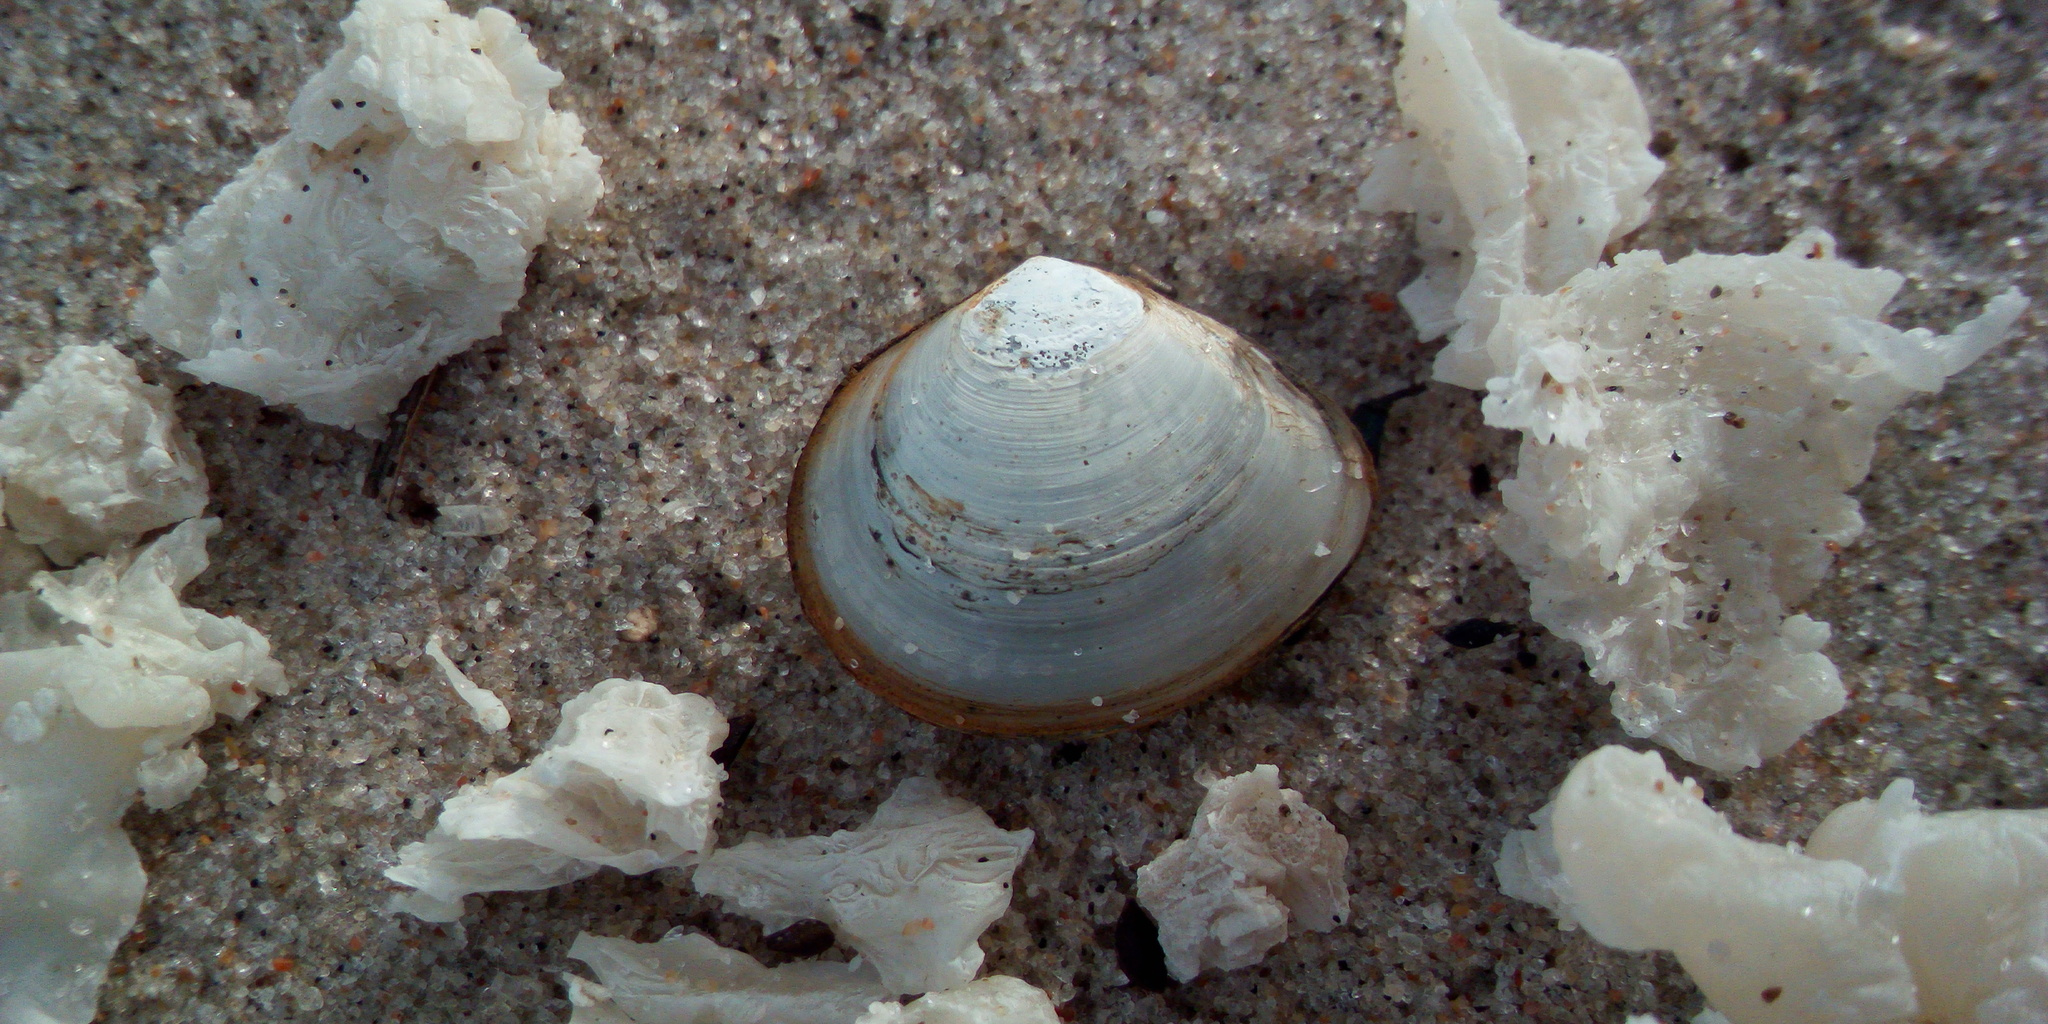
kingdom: Animalia
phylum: Mollusca
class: Bivalvia
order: Cardiida
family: Tellinidae
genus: Macoma
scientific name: Macoma balthica
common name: Baltic tellin
